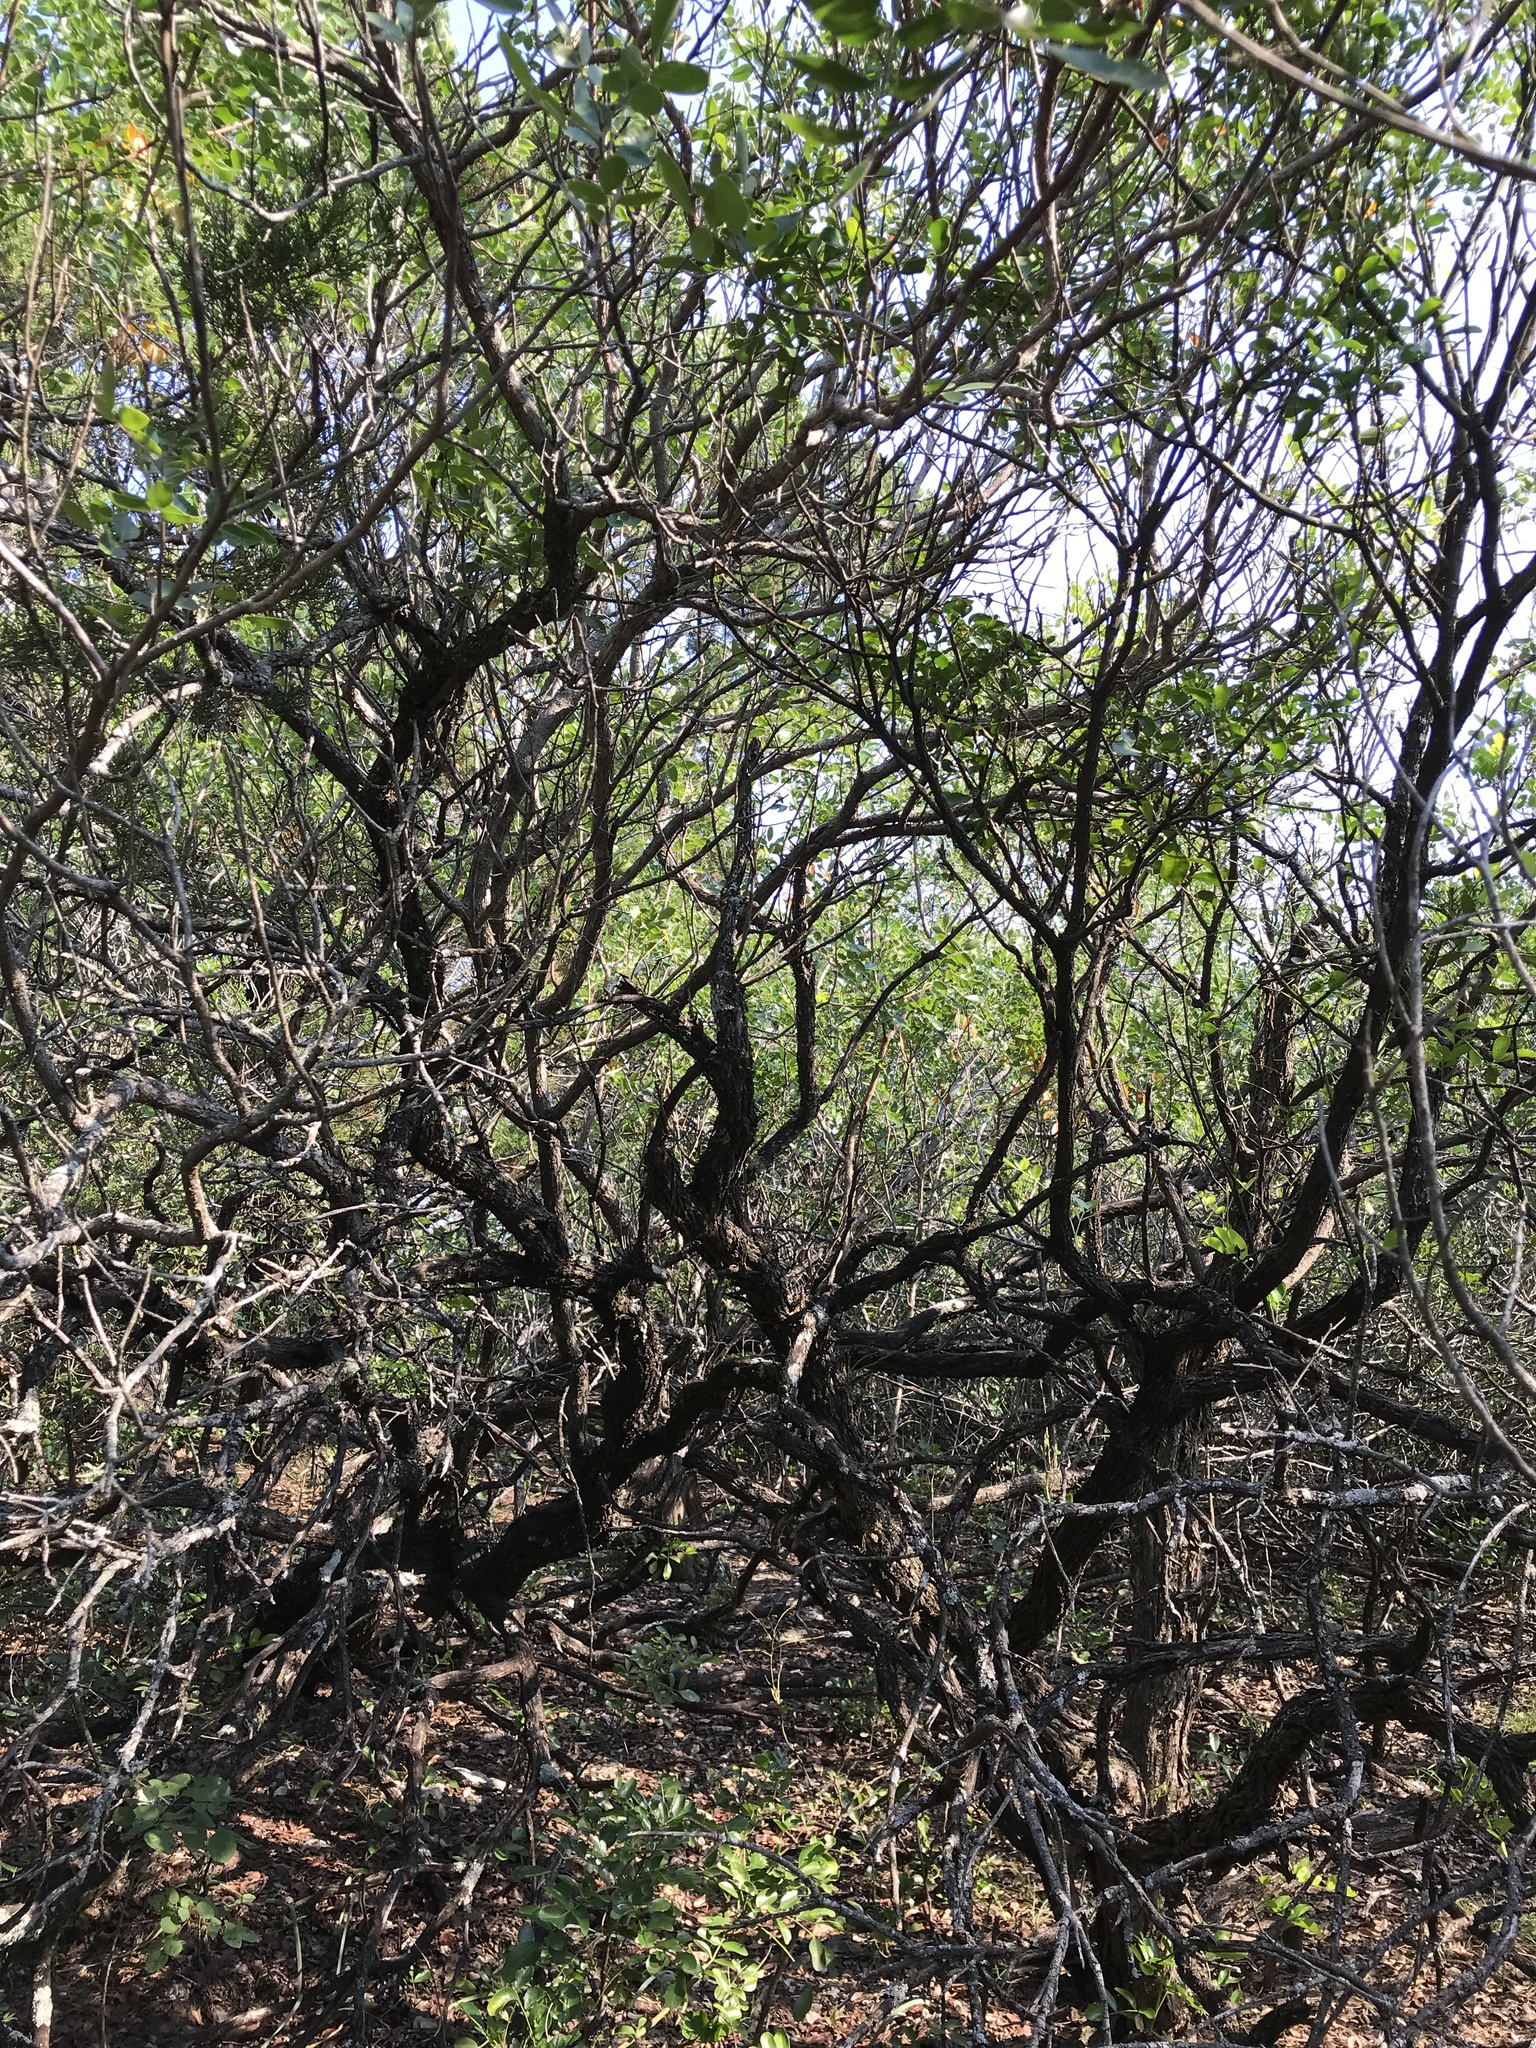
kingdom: Plantae
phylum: Tracheophyta
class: Magnoliopsida
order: Sapindales
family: Anacardiaceae
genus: Rhus
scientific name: Rhus virens
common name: Evergreen sumac
